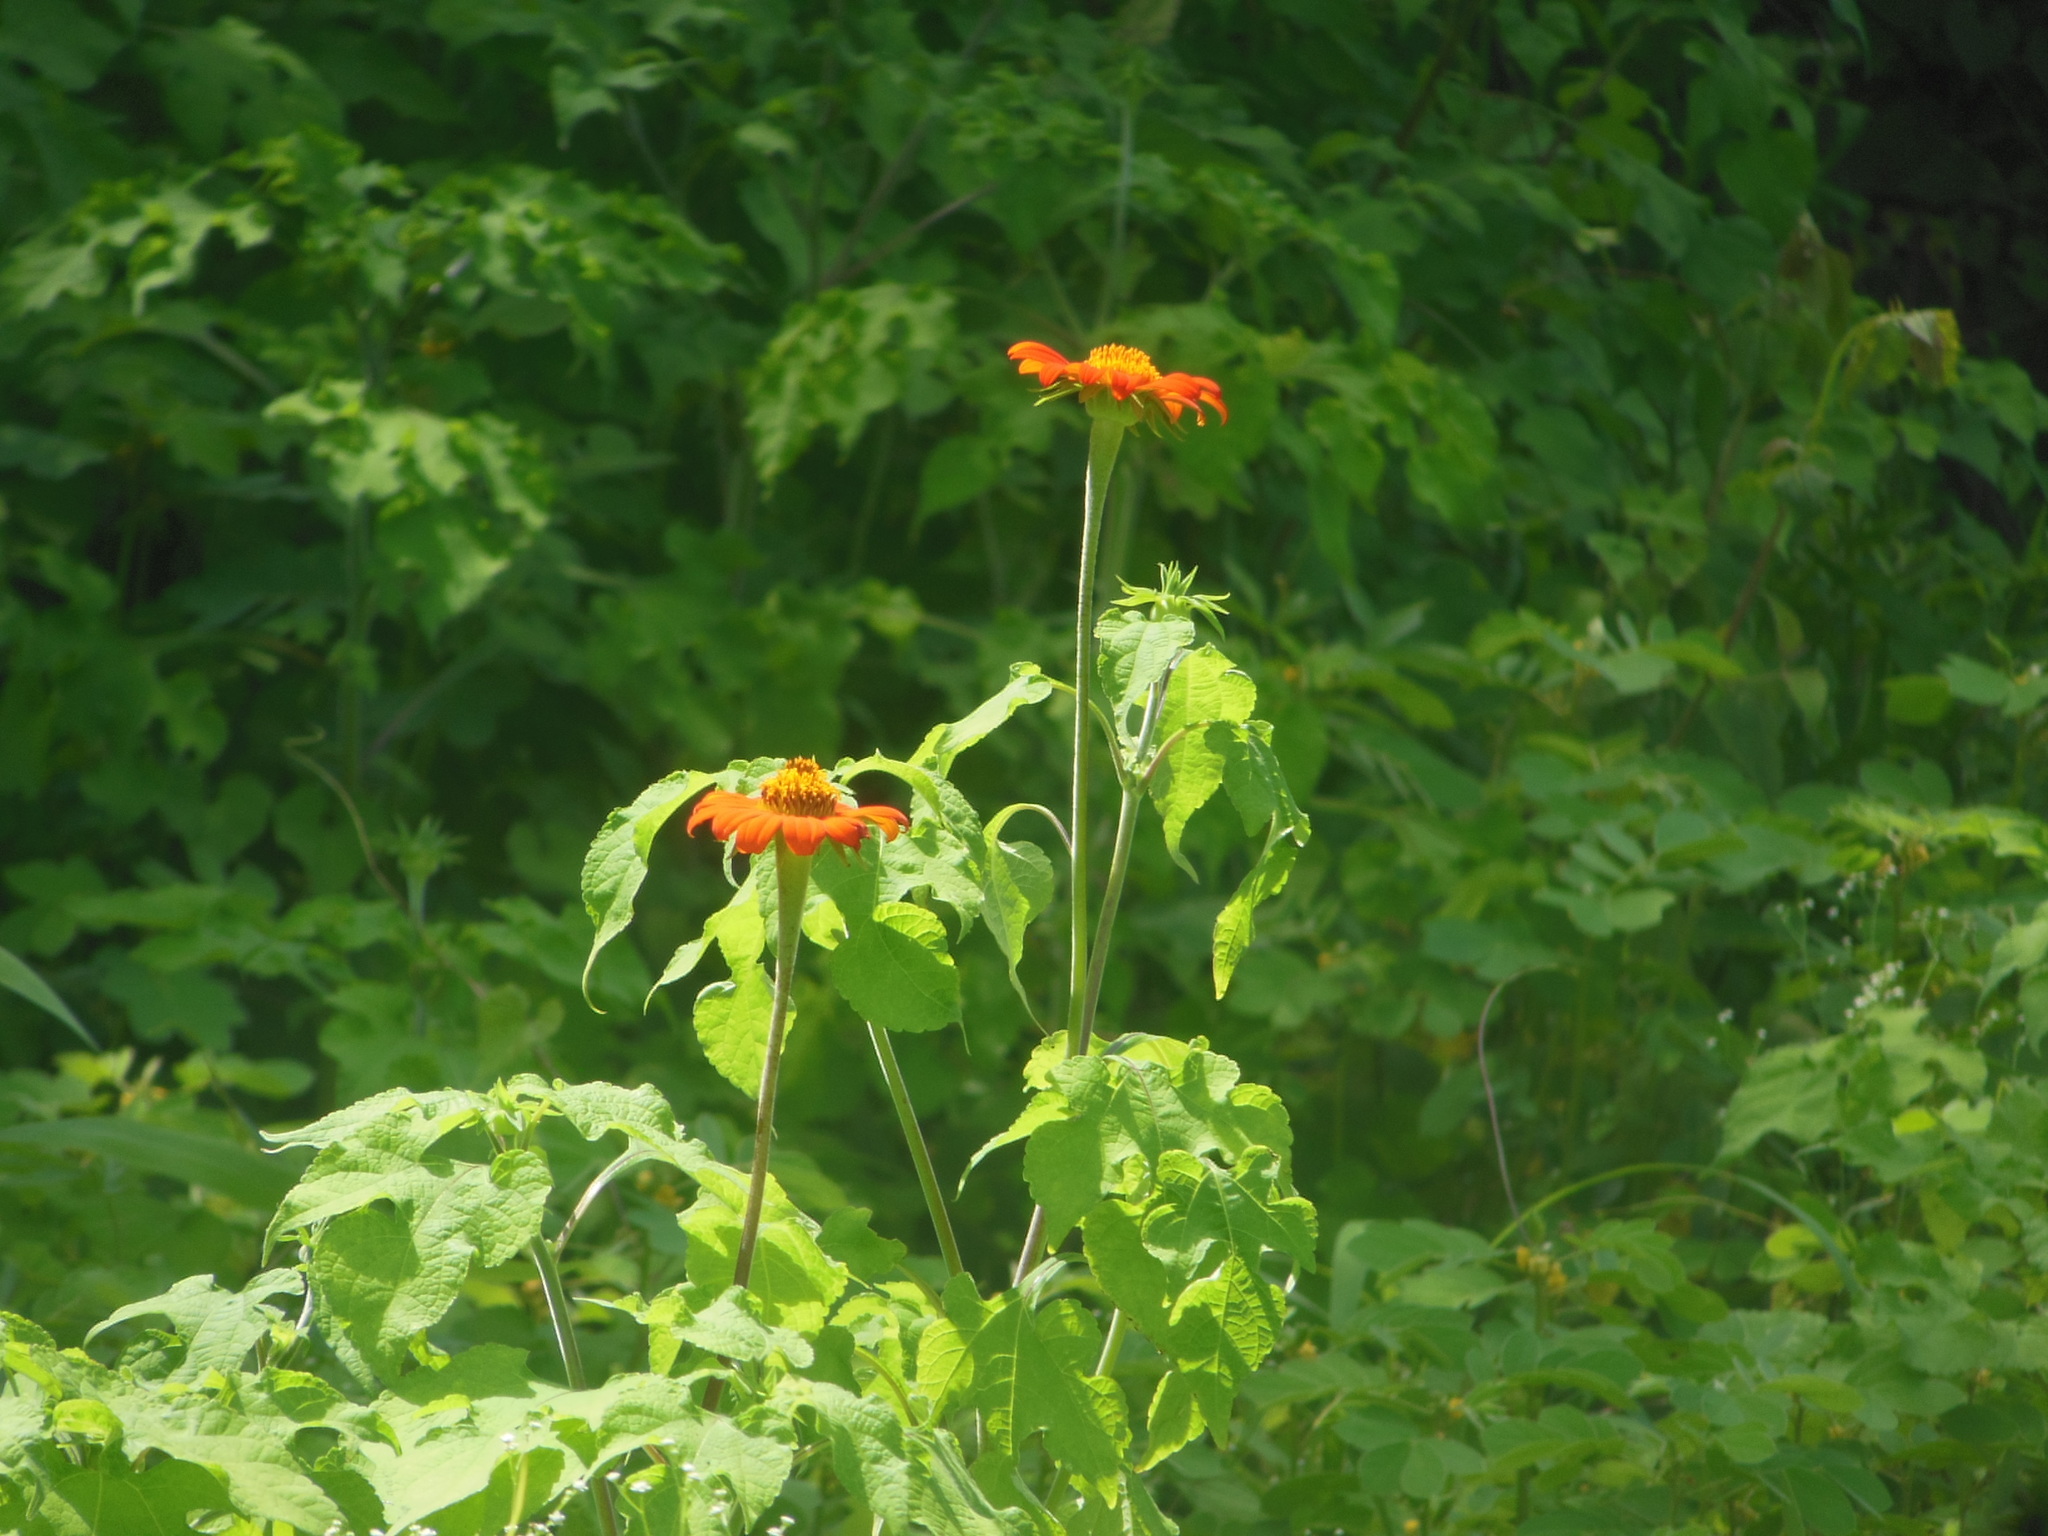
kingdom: Plantae
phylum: Tracheophyta
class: Magnoliopsida
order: Asterales
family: Asteraceae
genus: Tithonia
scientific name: Tithonia rotundifolia
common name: Sunflower
